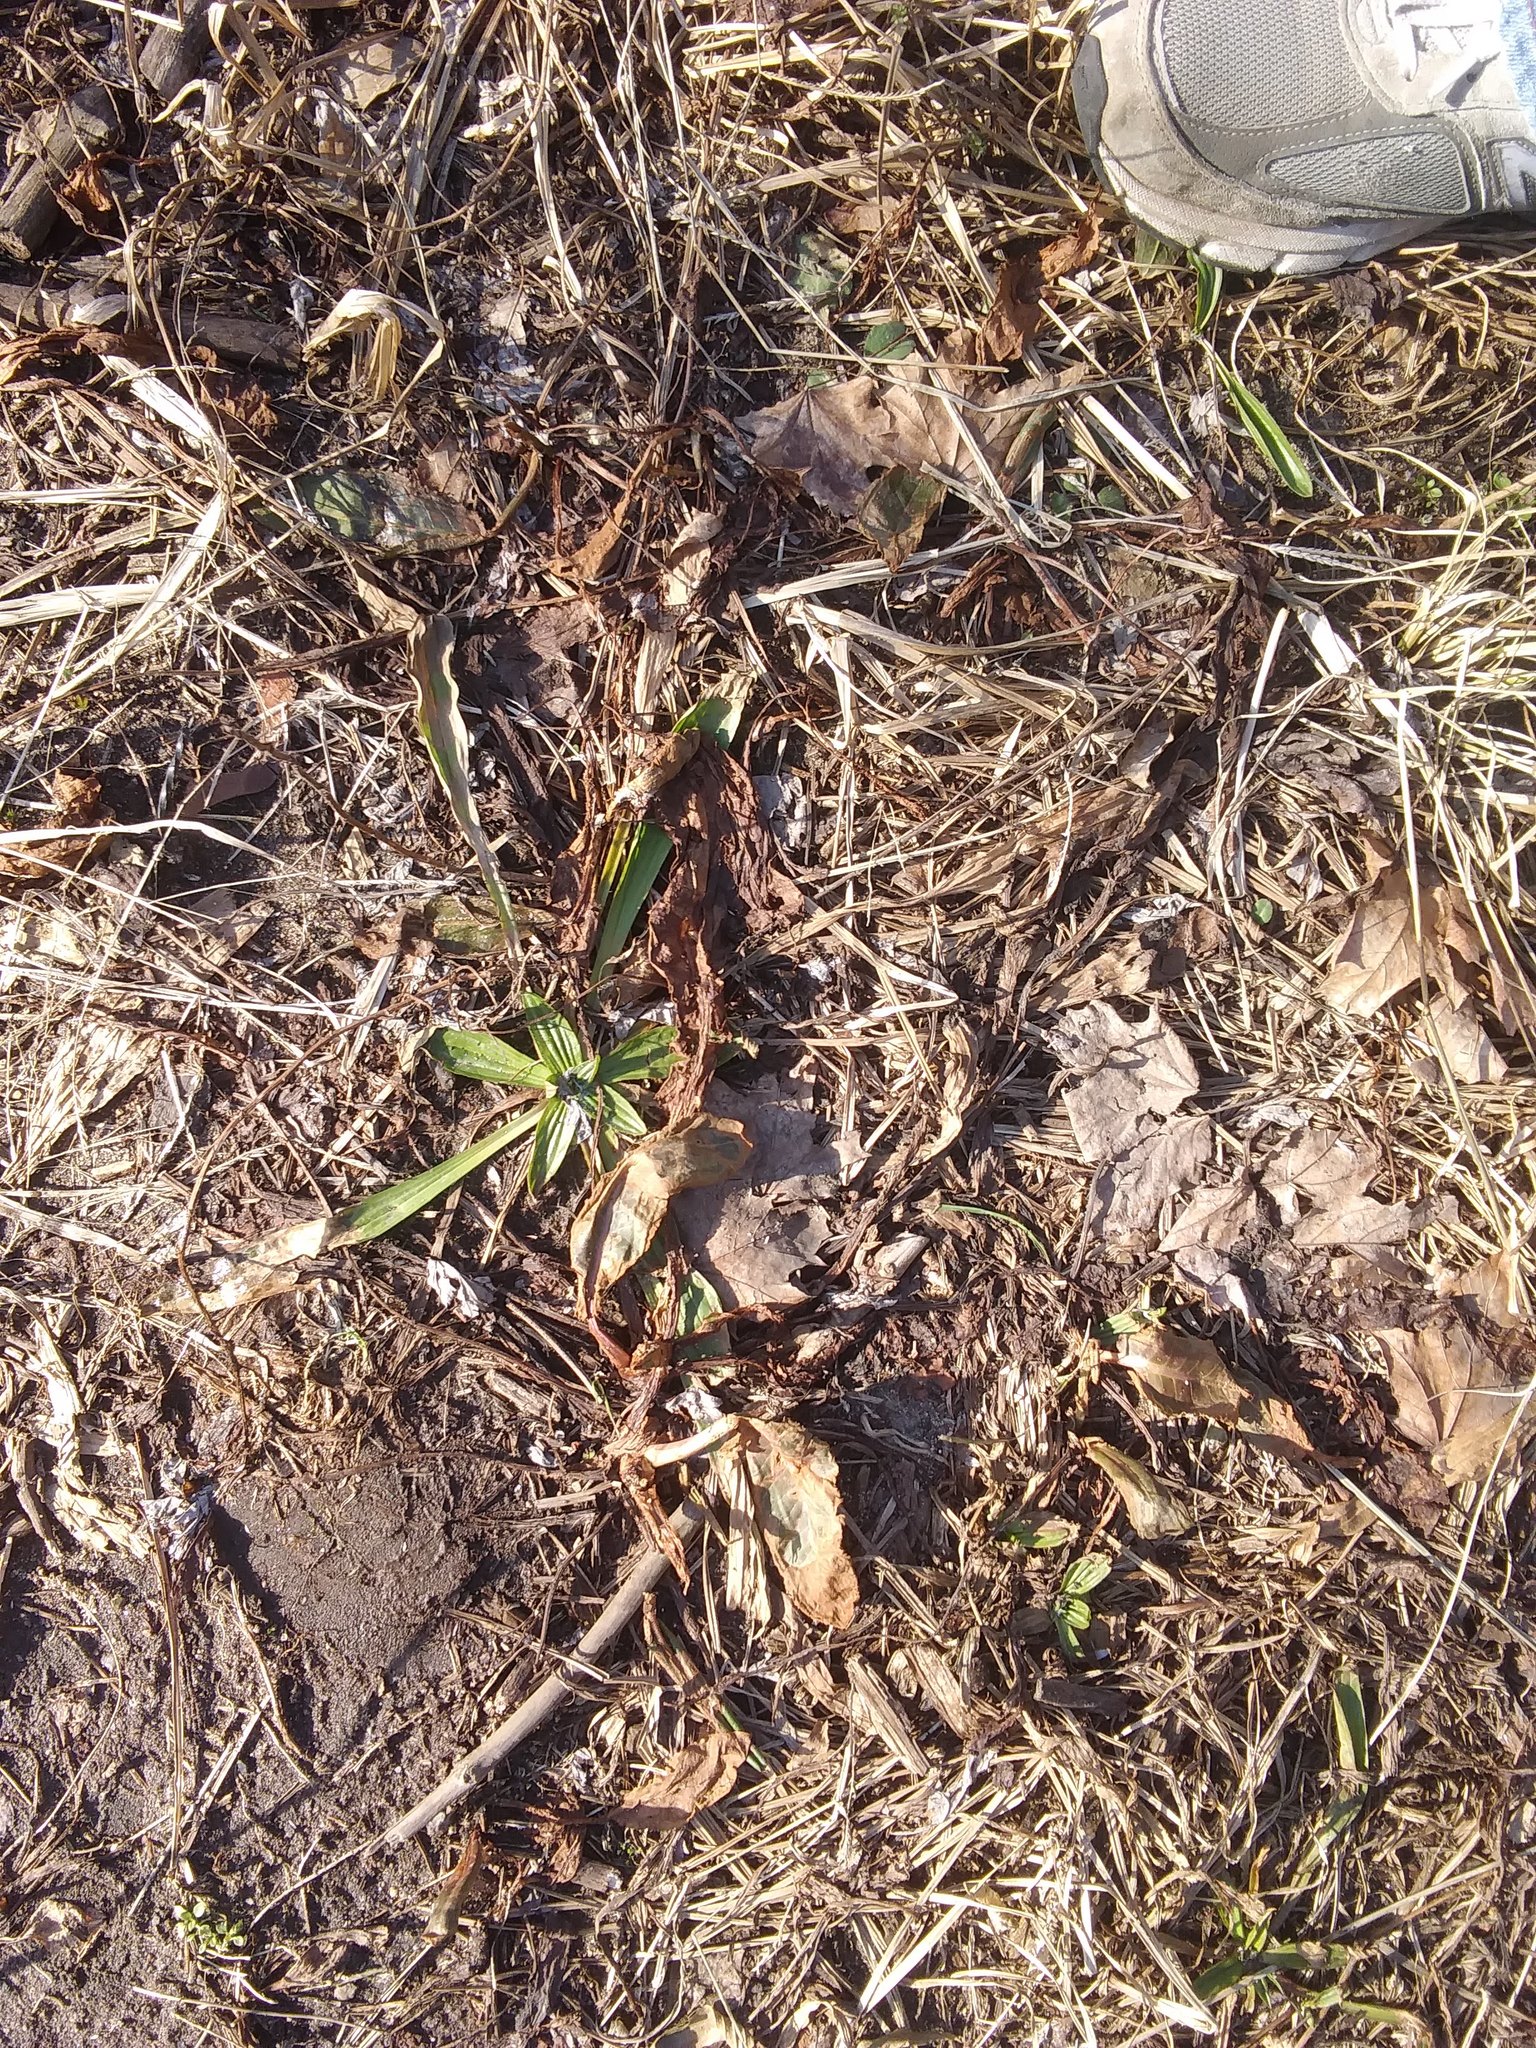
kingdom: Plantae
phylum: Tracheophyta
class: Magnoliopsida
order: Lamiales
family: Plantaginaceae
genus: Plantago
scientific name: Plantago lanceolata
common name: Ribwort plantain
